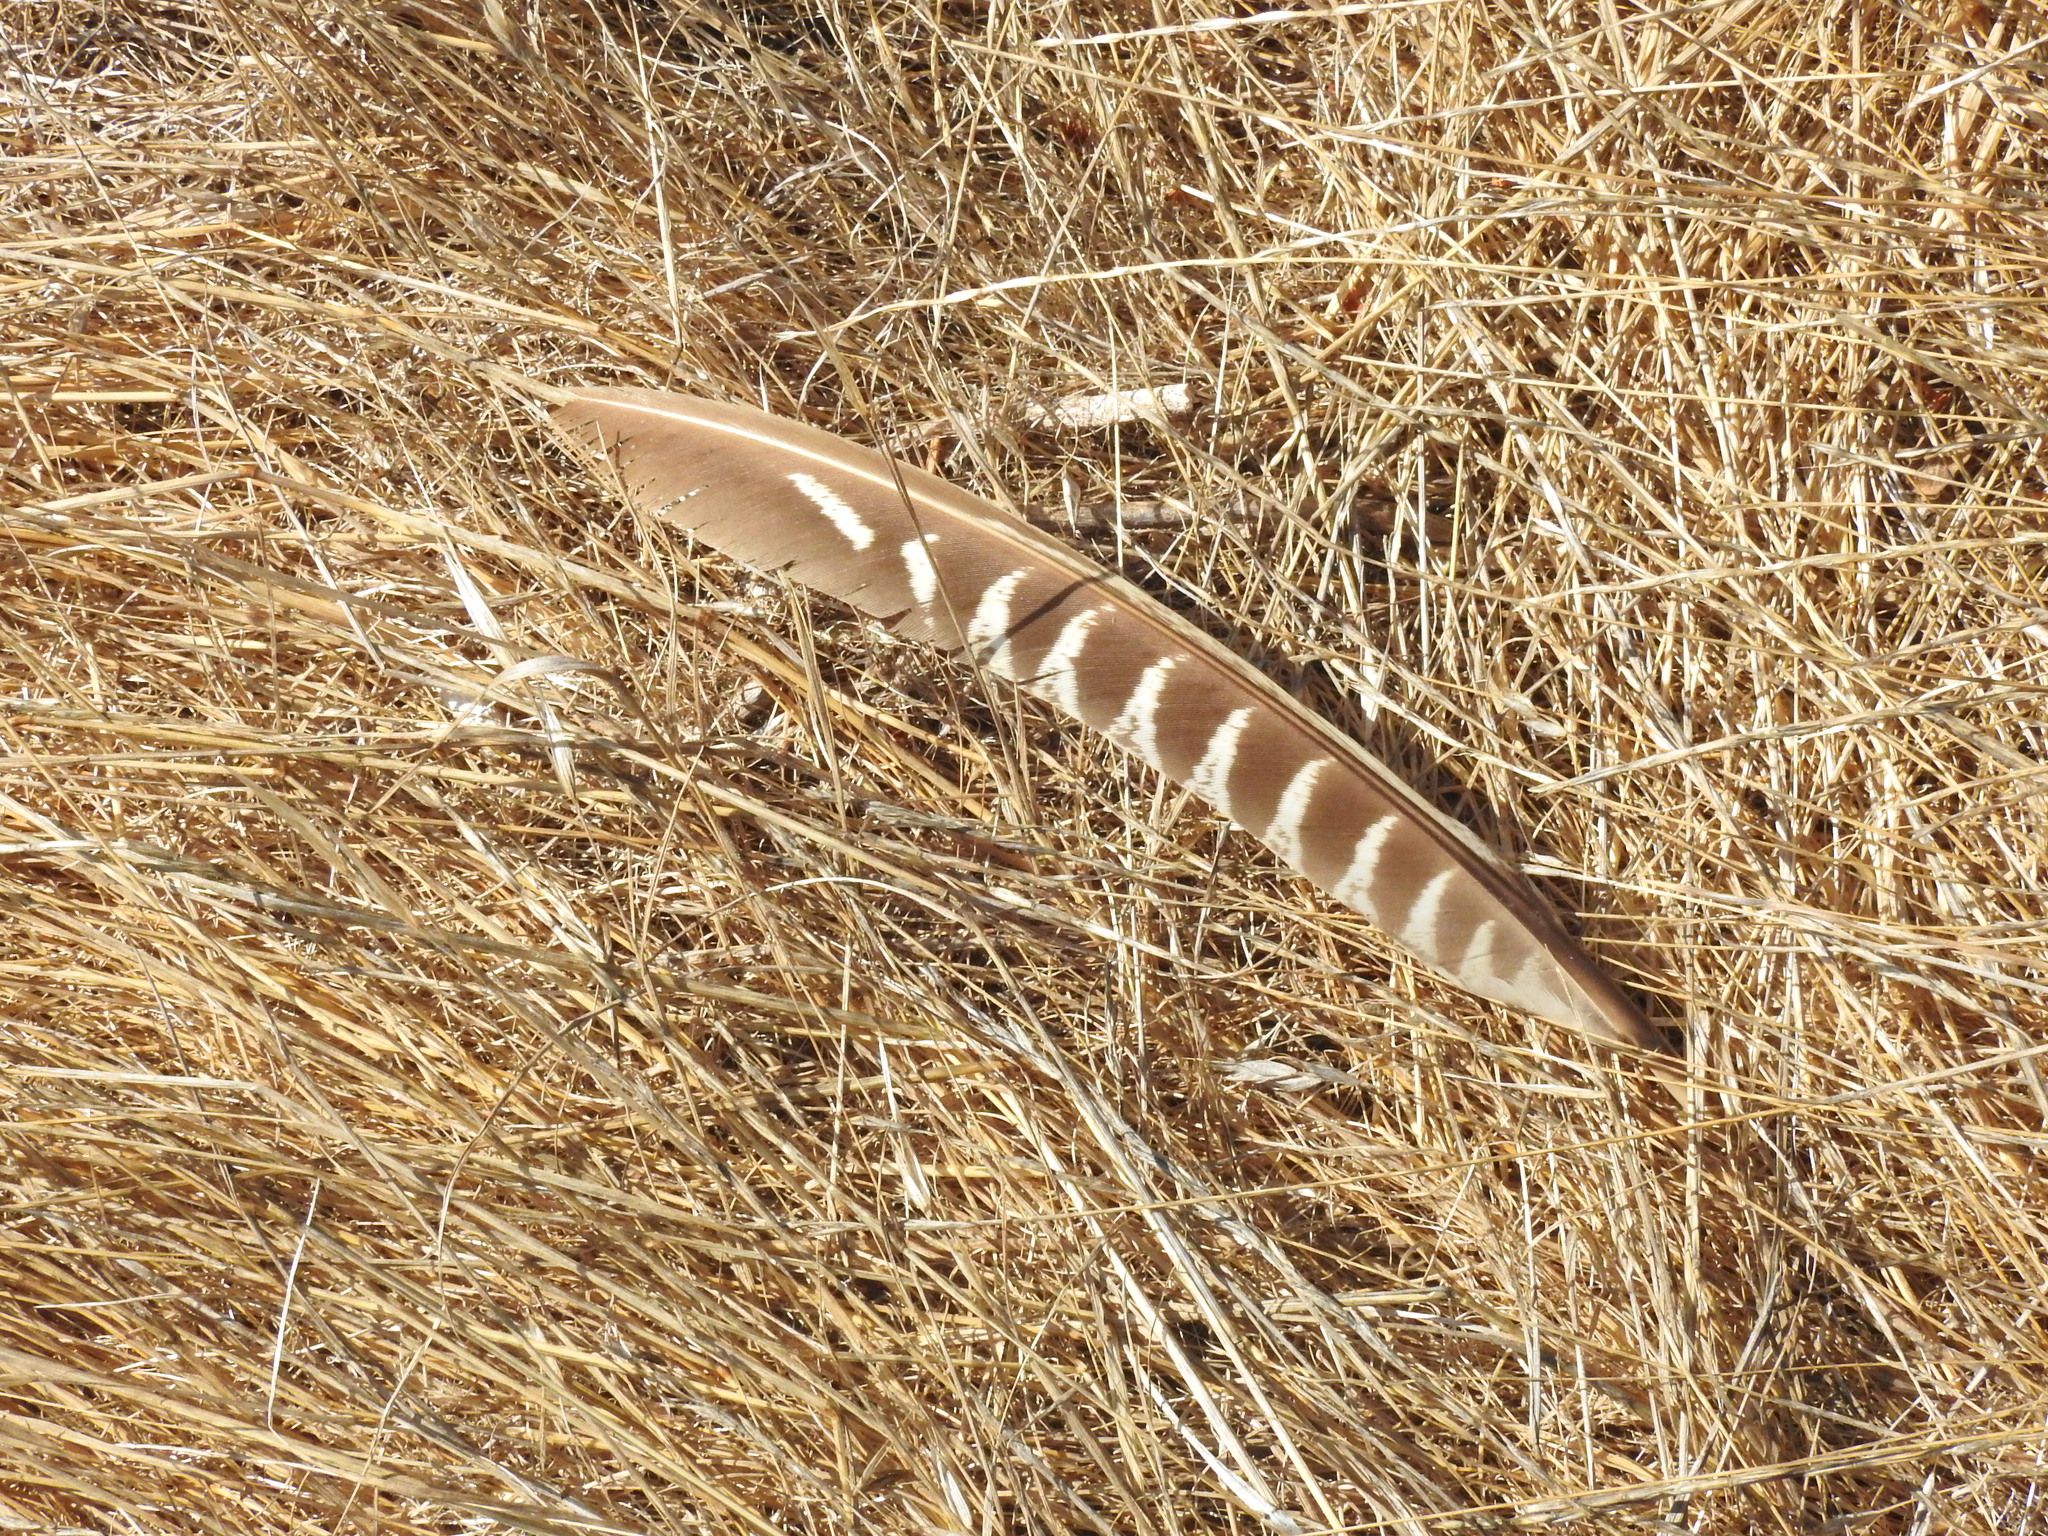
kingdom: Animalia
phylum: Chordata
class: Aves
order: Galliformes
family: Phasianidae
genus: Phasianus
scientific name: Phasianus colchicus
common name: Common pheasant
